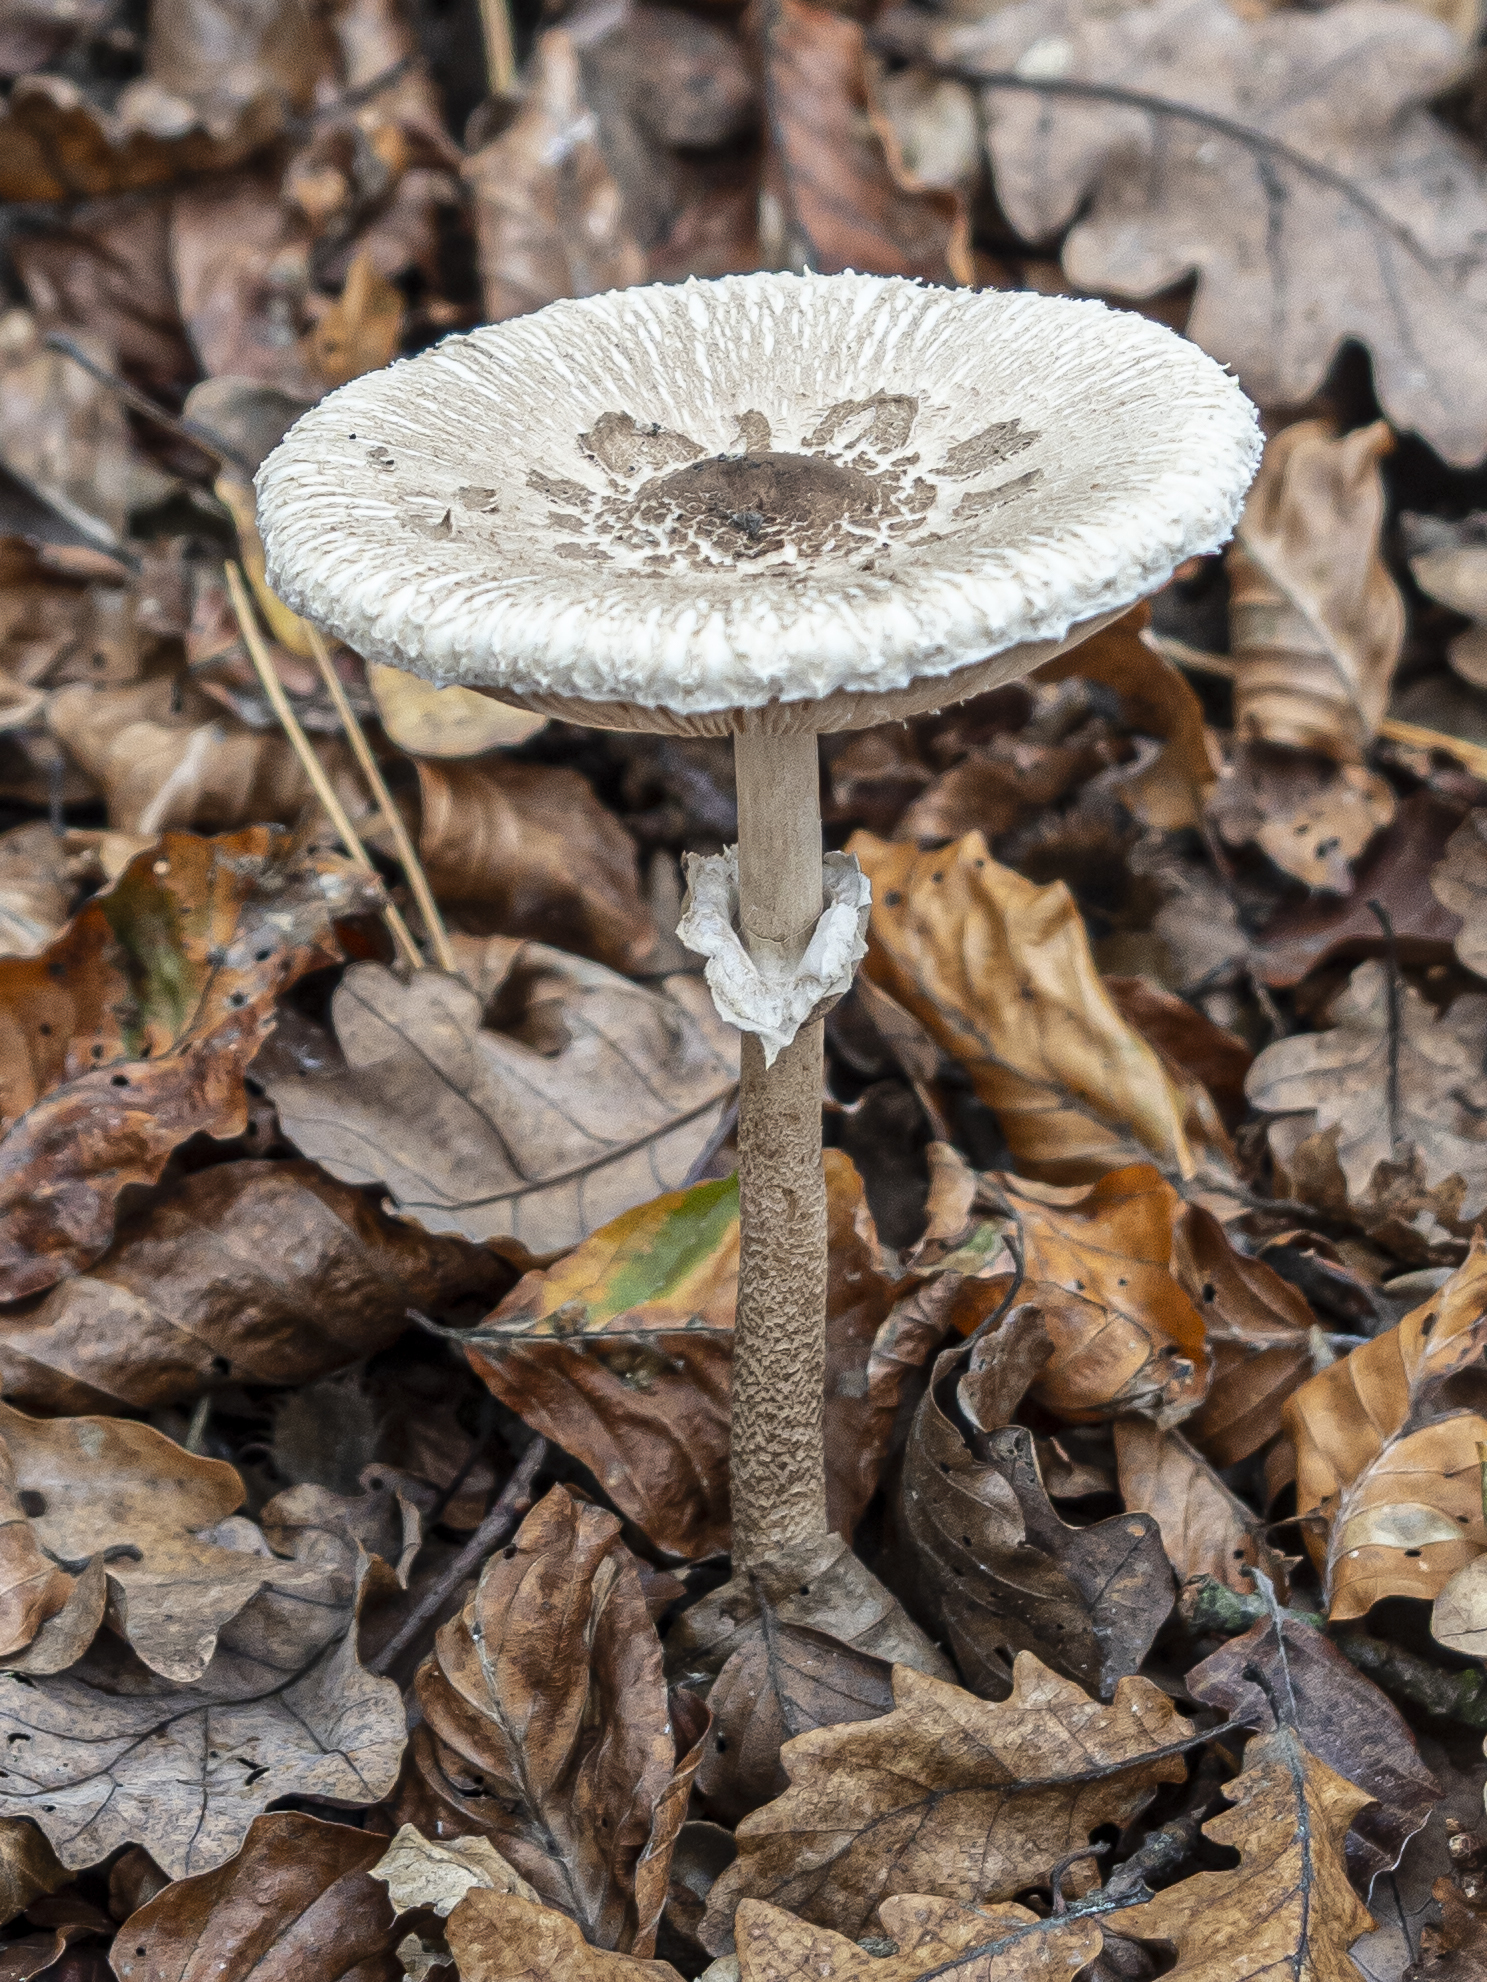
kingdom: Fungi
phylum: Basidiomycota
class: Agaricomycetes
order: Agaricales
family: Agaricaceae
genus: Macrolepiota
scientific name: Macrolepiota fuliginosa
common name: Sooty parasol
